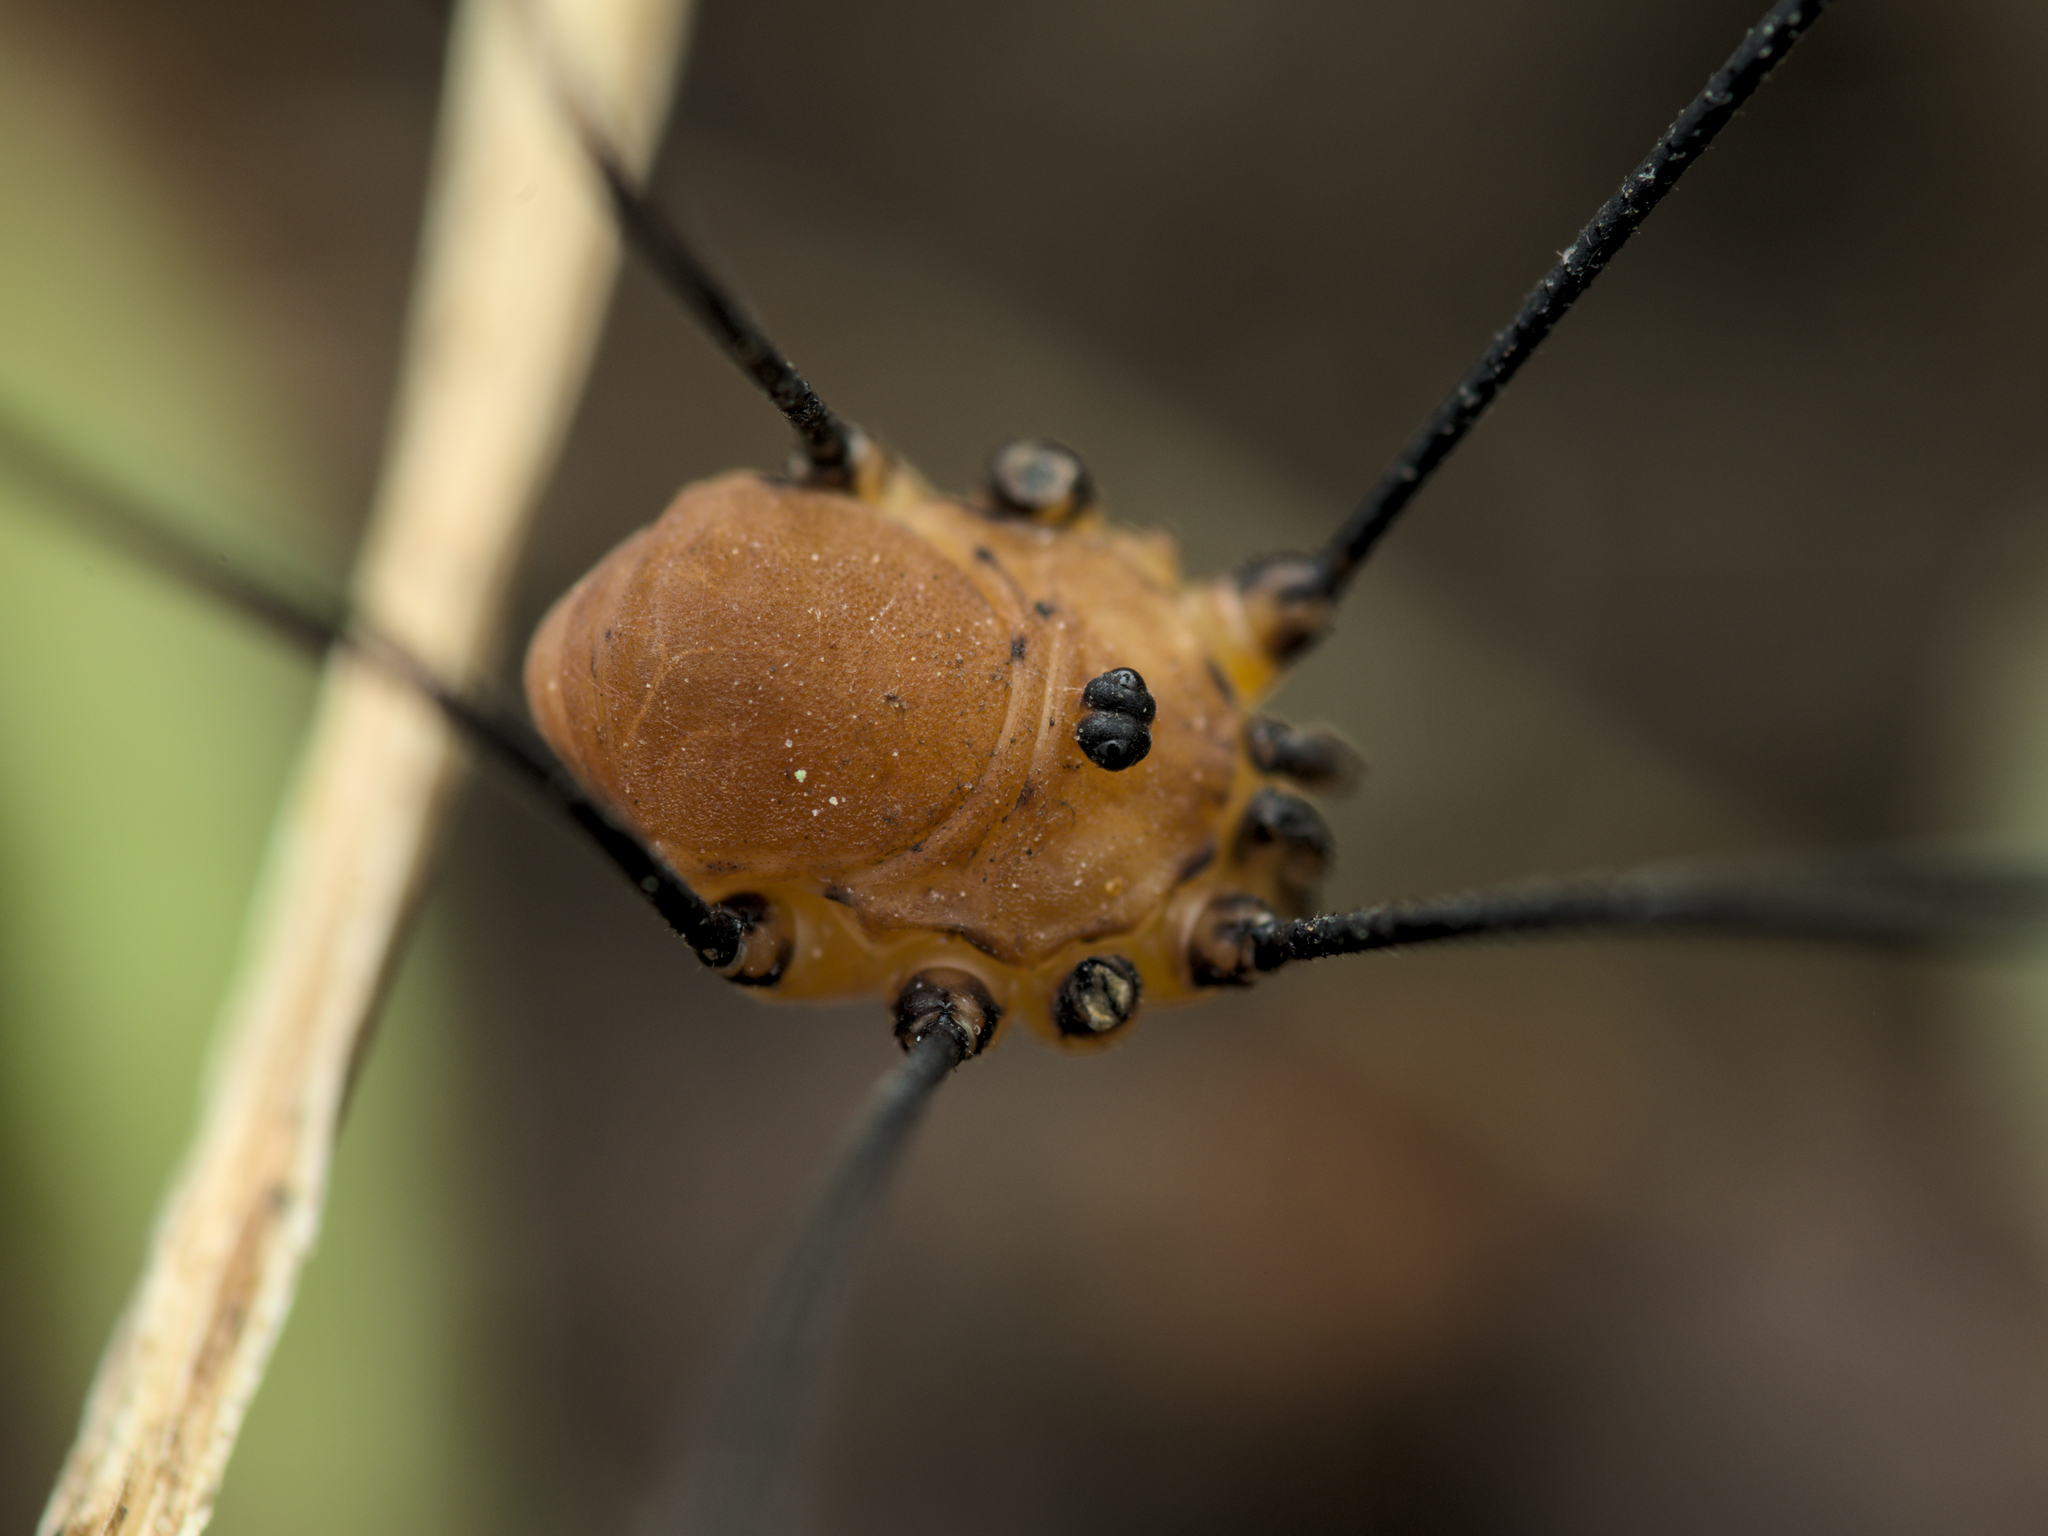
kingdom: Animalia
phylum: Arthropoda
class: Arachnida
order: Opiliones
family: Sclerosomatidae
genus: Leiobunum
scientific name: Leiobunum rotundum
